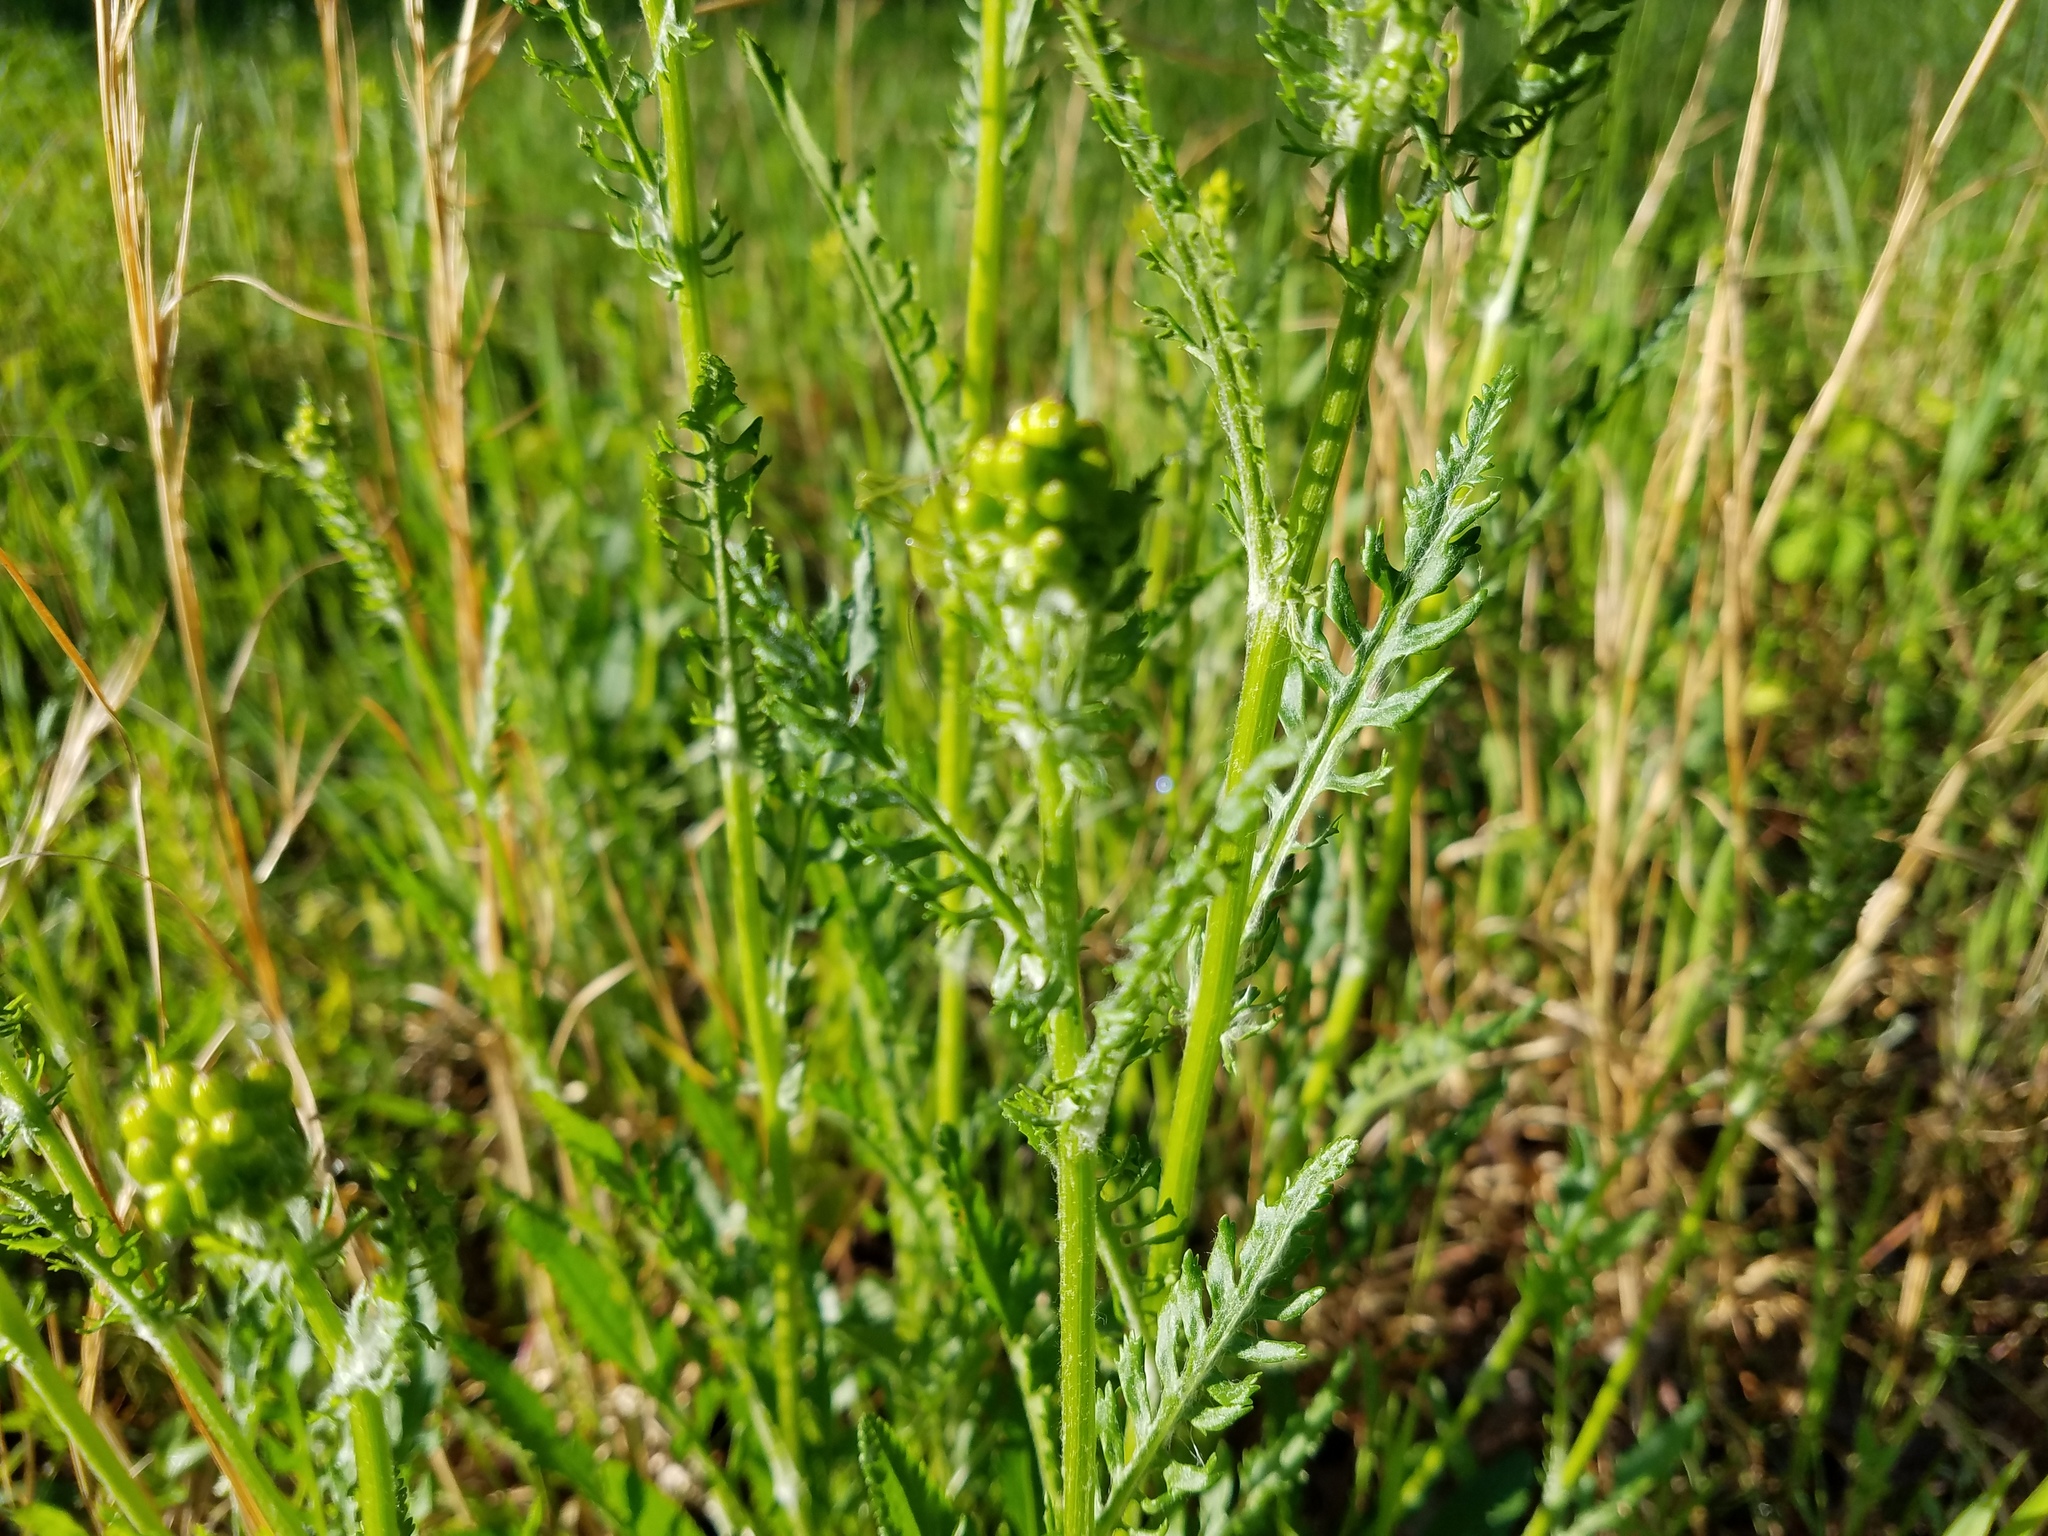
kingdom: Plantae
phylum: Tracheophyta
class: Magnoliopsida
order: Asterales
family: Asteraceae
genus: Packera
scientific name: Packera anonyma
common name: Small ragwort
